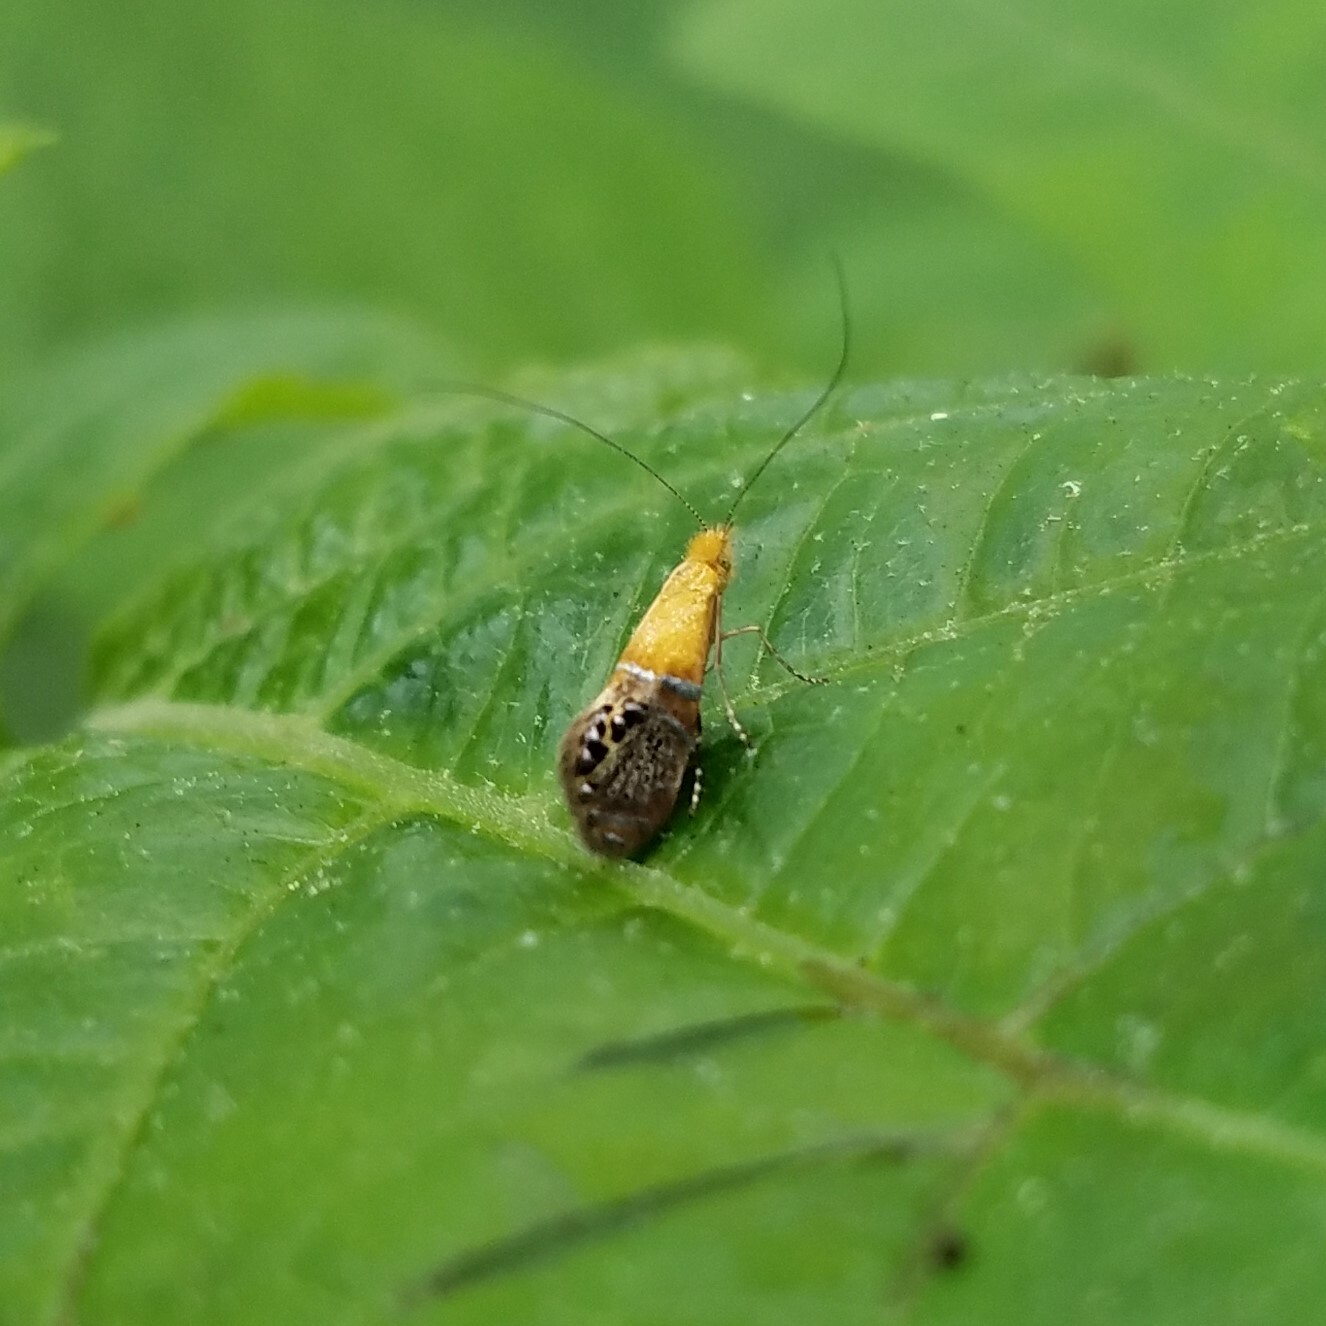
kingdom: Animalia
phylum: Arthropoda
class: Insecta
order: Lepidoptera
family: Adelidae
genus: Adela
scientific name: Adela ridingsella
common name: Ridings' fairy moth
